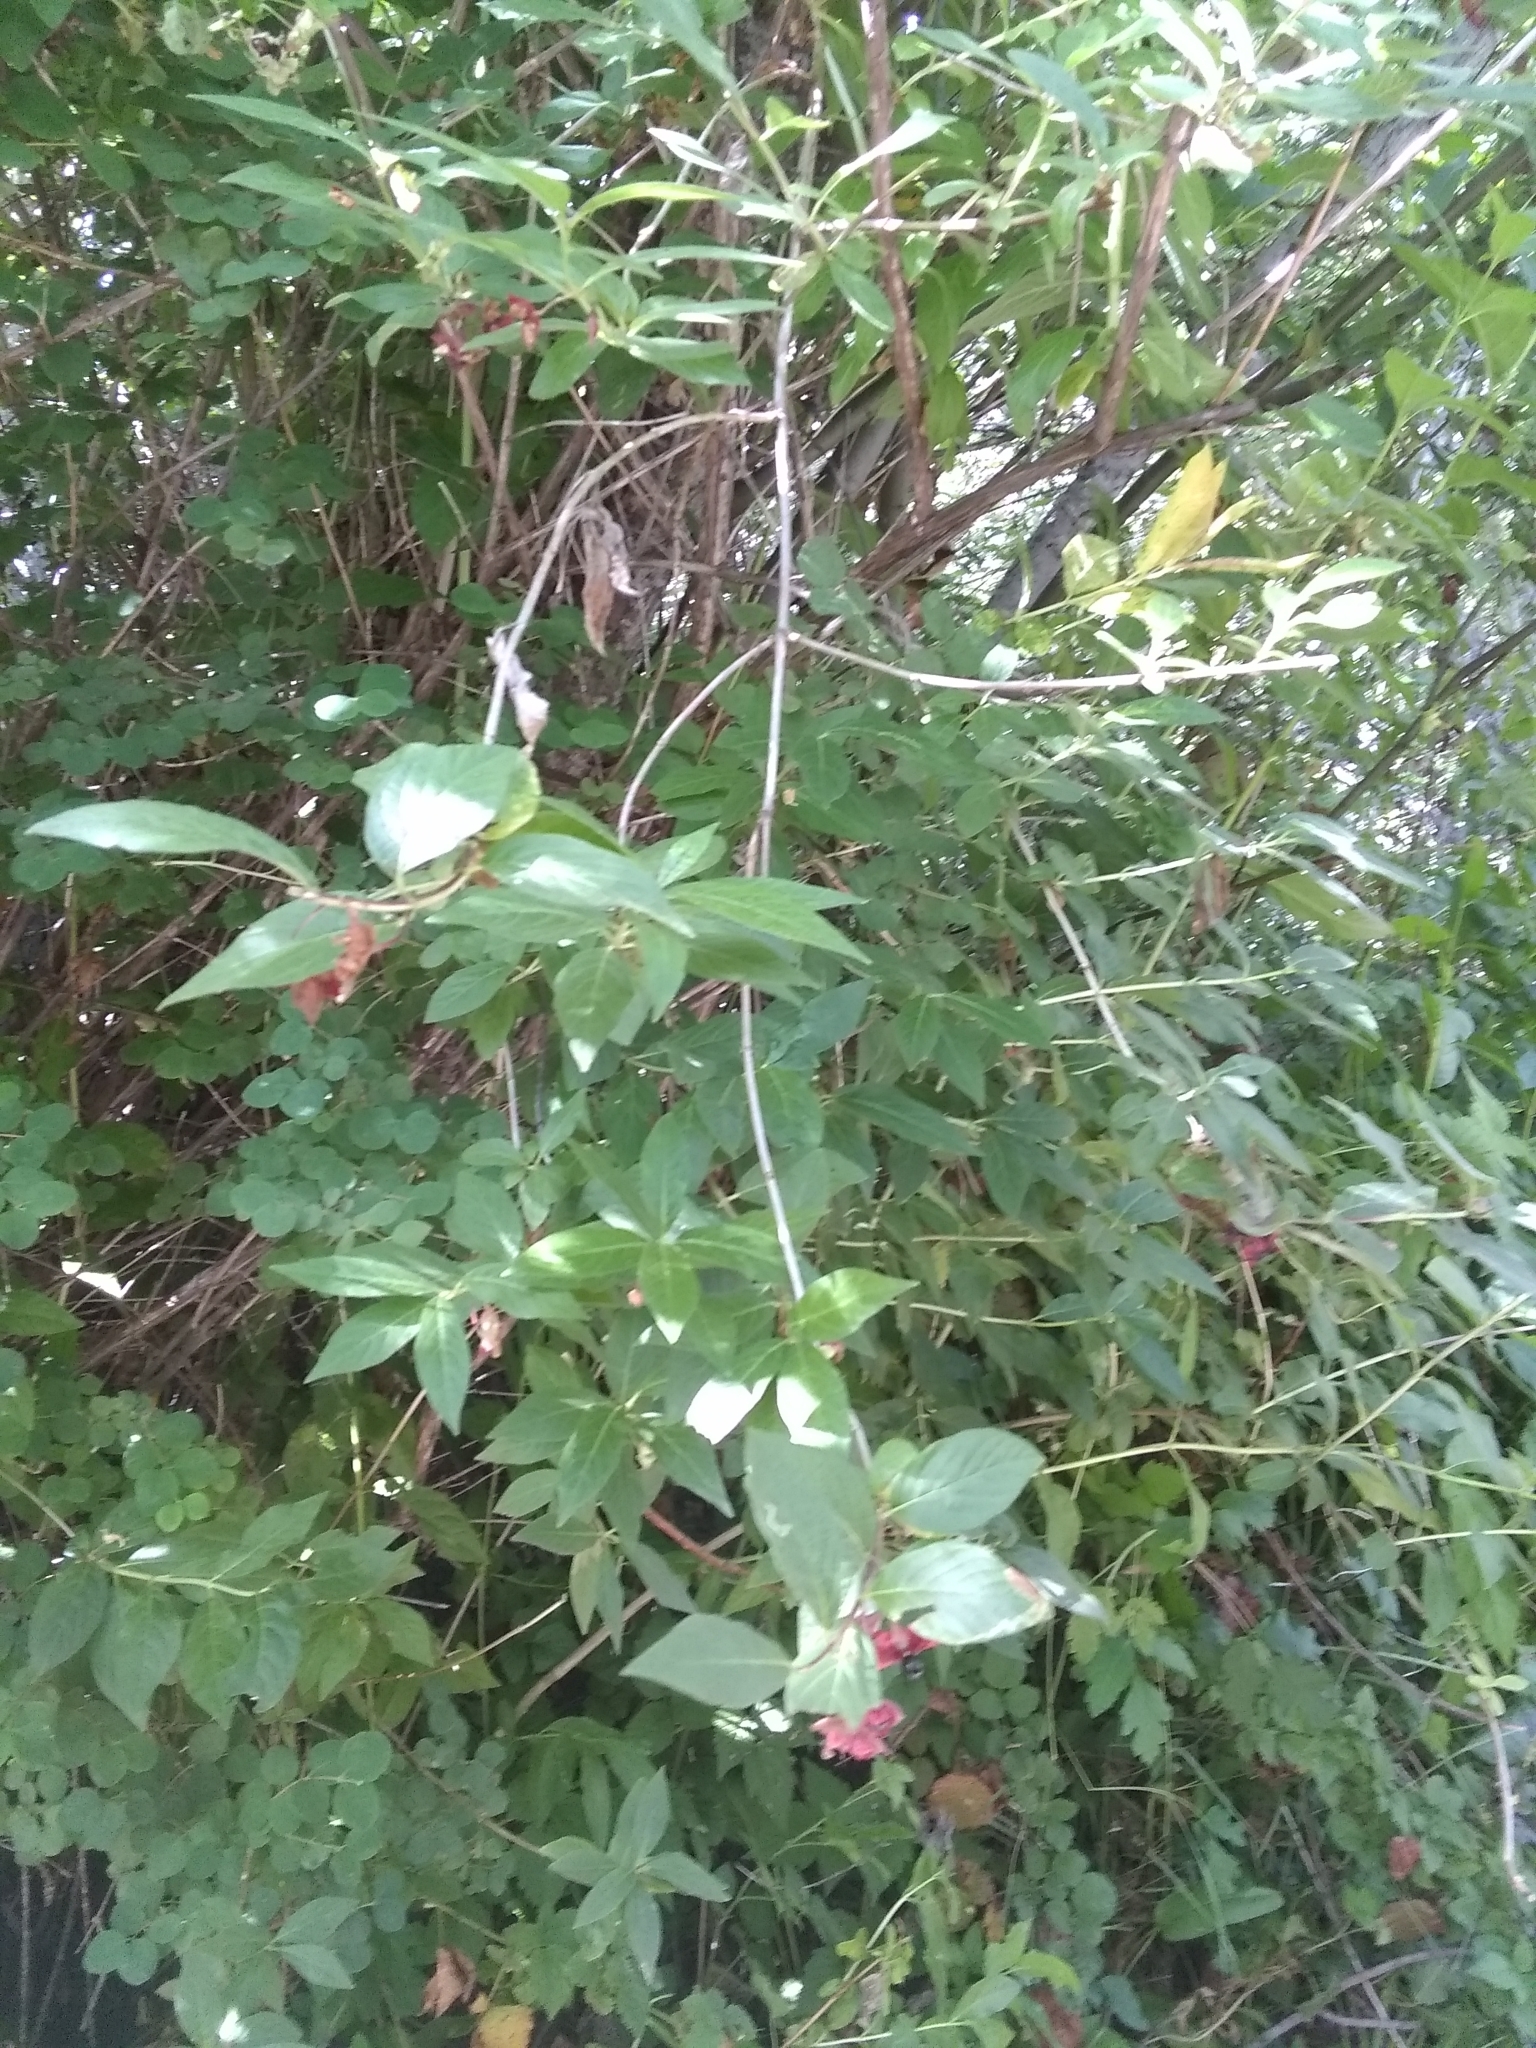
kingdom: Plantae
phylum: Tracheophyta
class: Magnoliopsida
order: Dipsacales
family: Caprifoliaceae
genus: Lonicera
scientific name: Lonicera involucrata
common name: Californian honeysuckle
